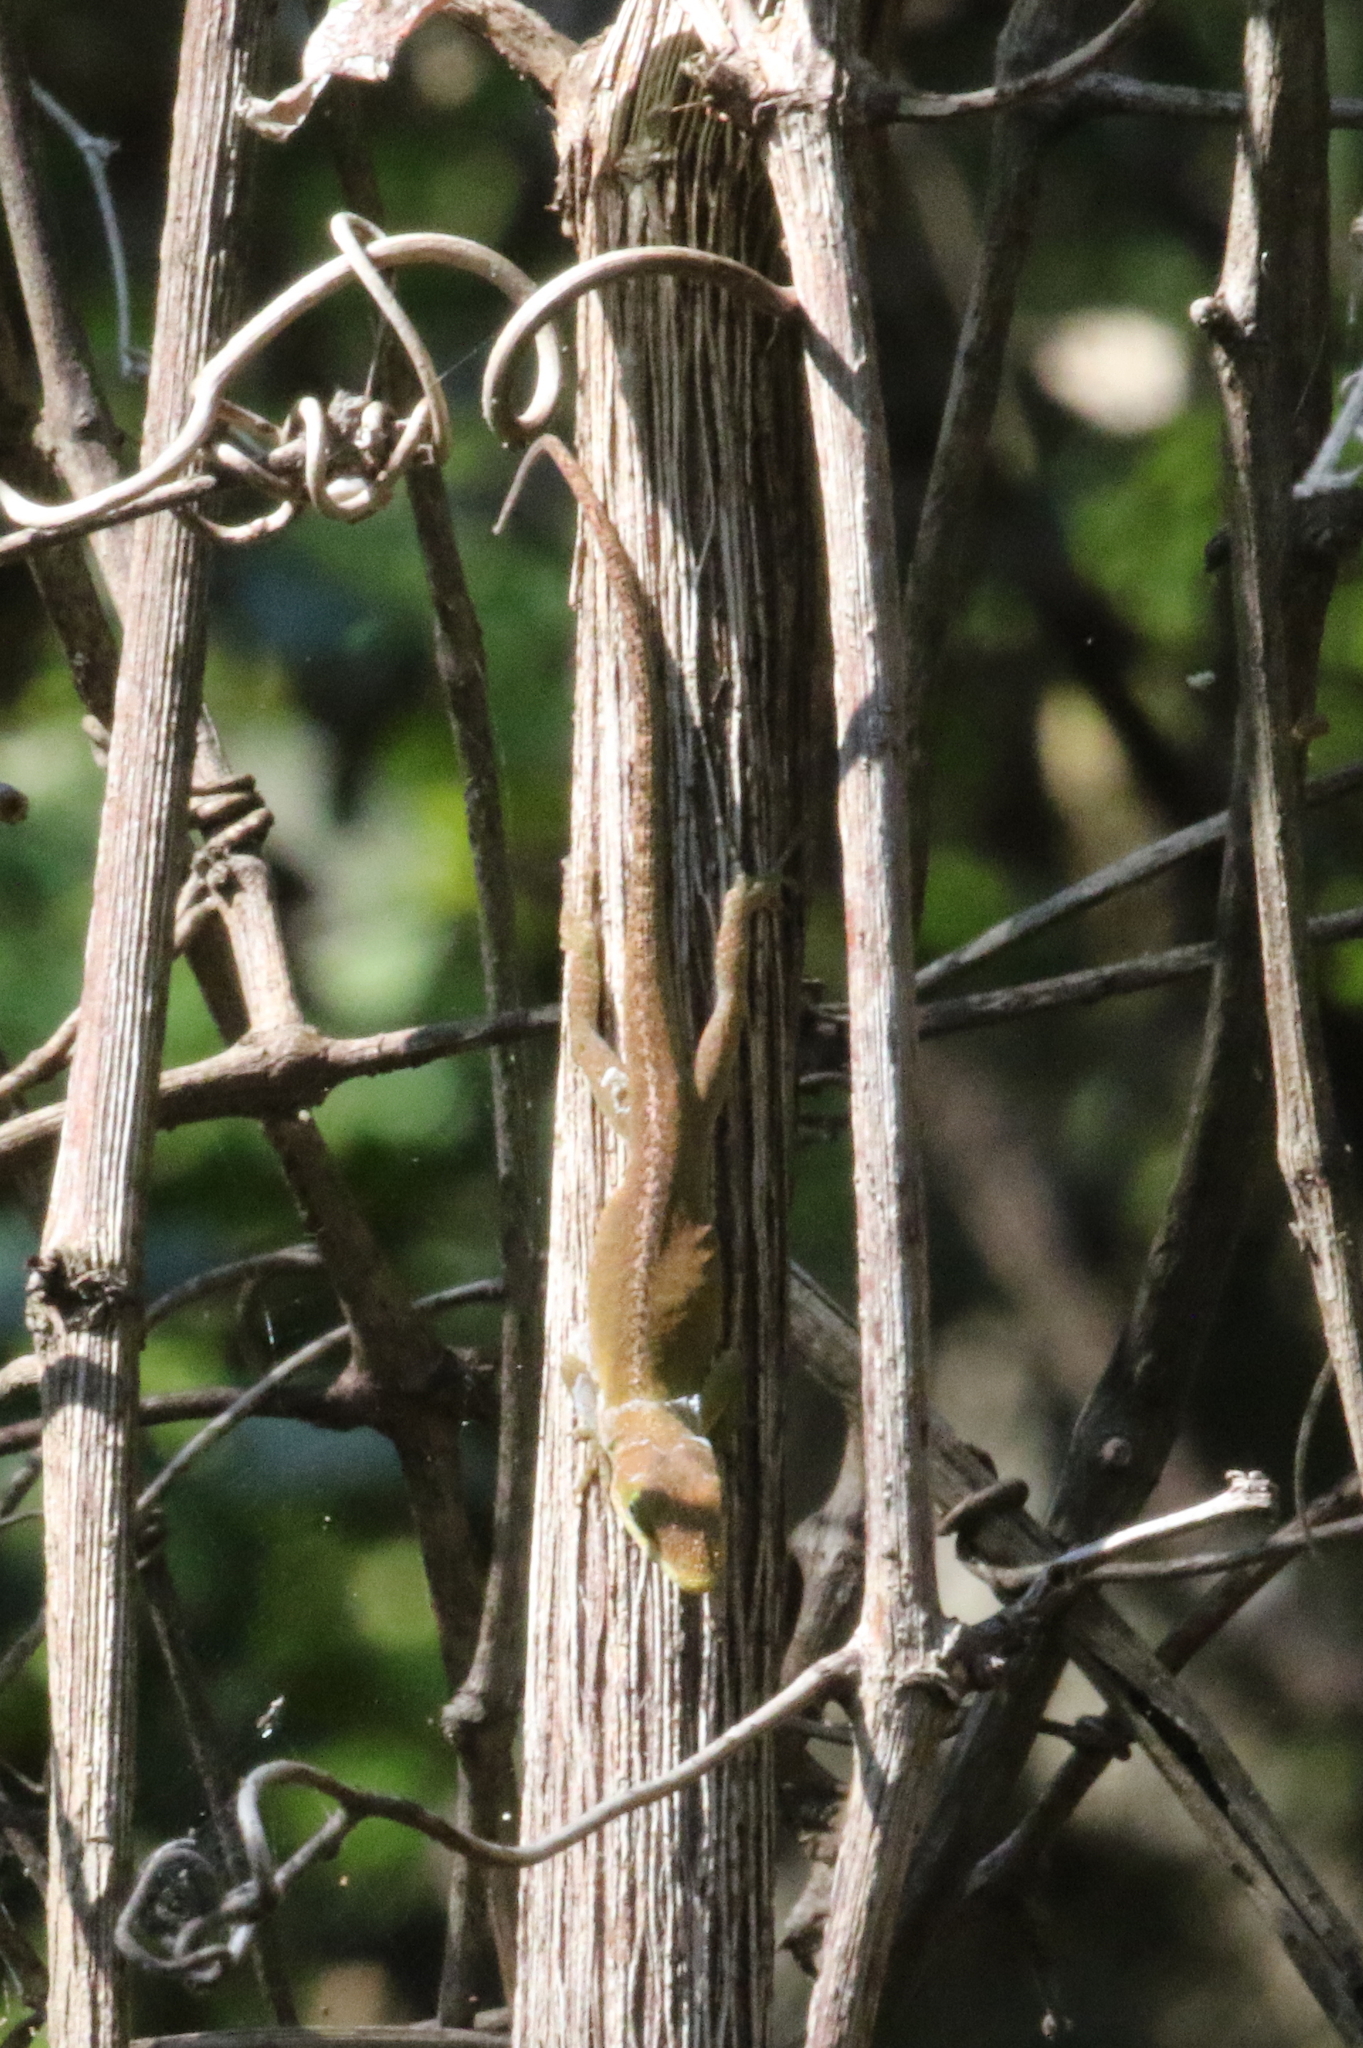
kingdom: Animalia
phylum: Chordata
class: Squamata
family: Dactyloidae
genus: Anolis
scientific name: Anolis carolinensis
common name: Green anole
